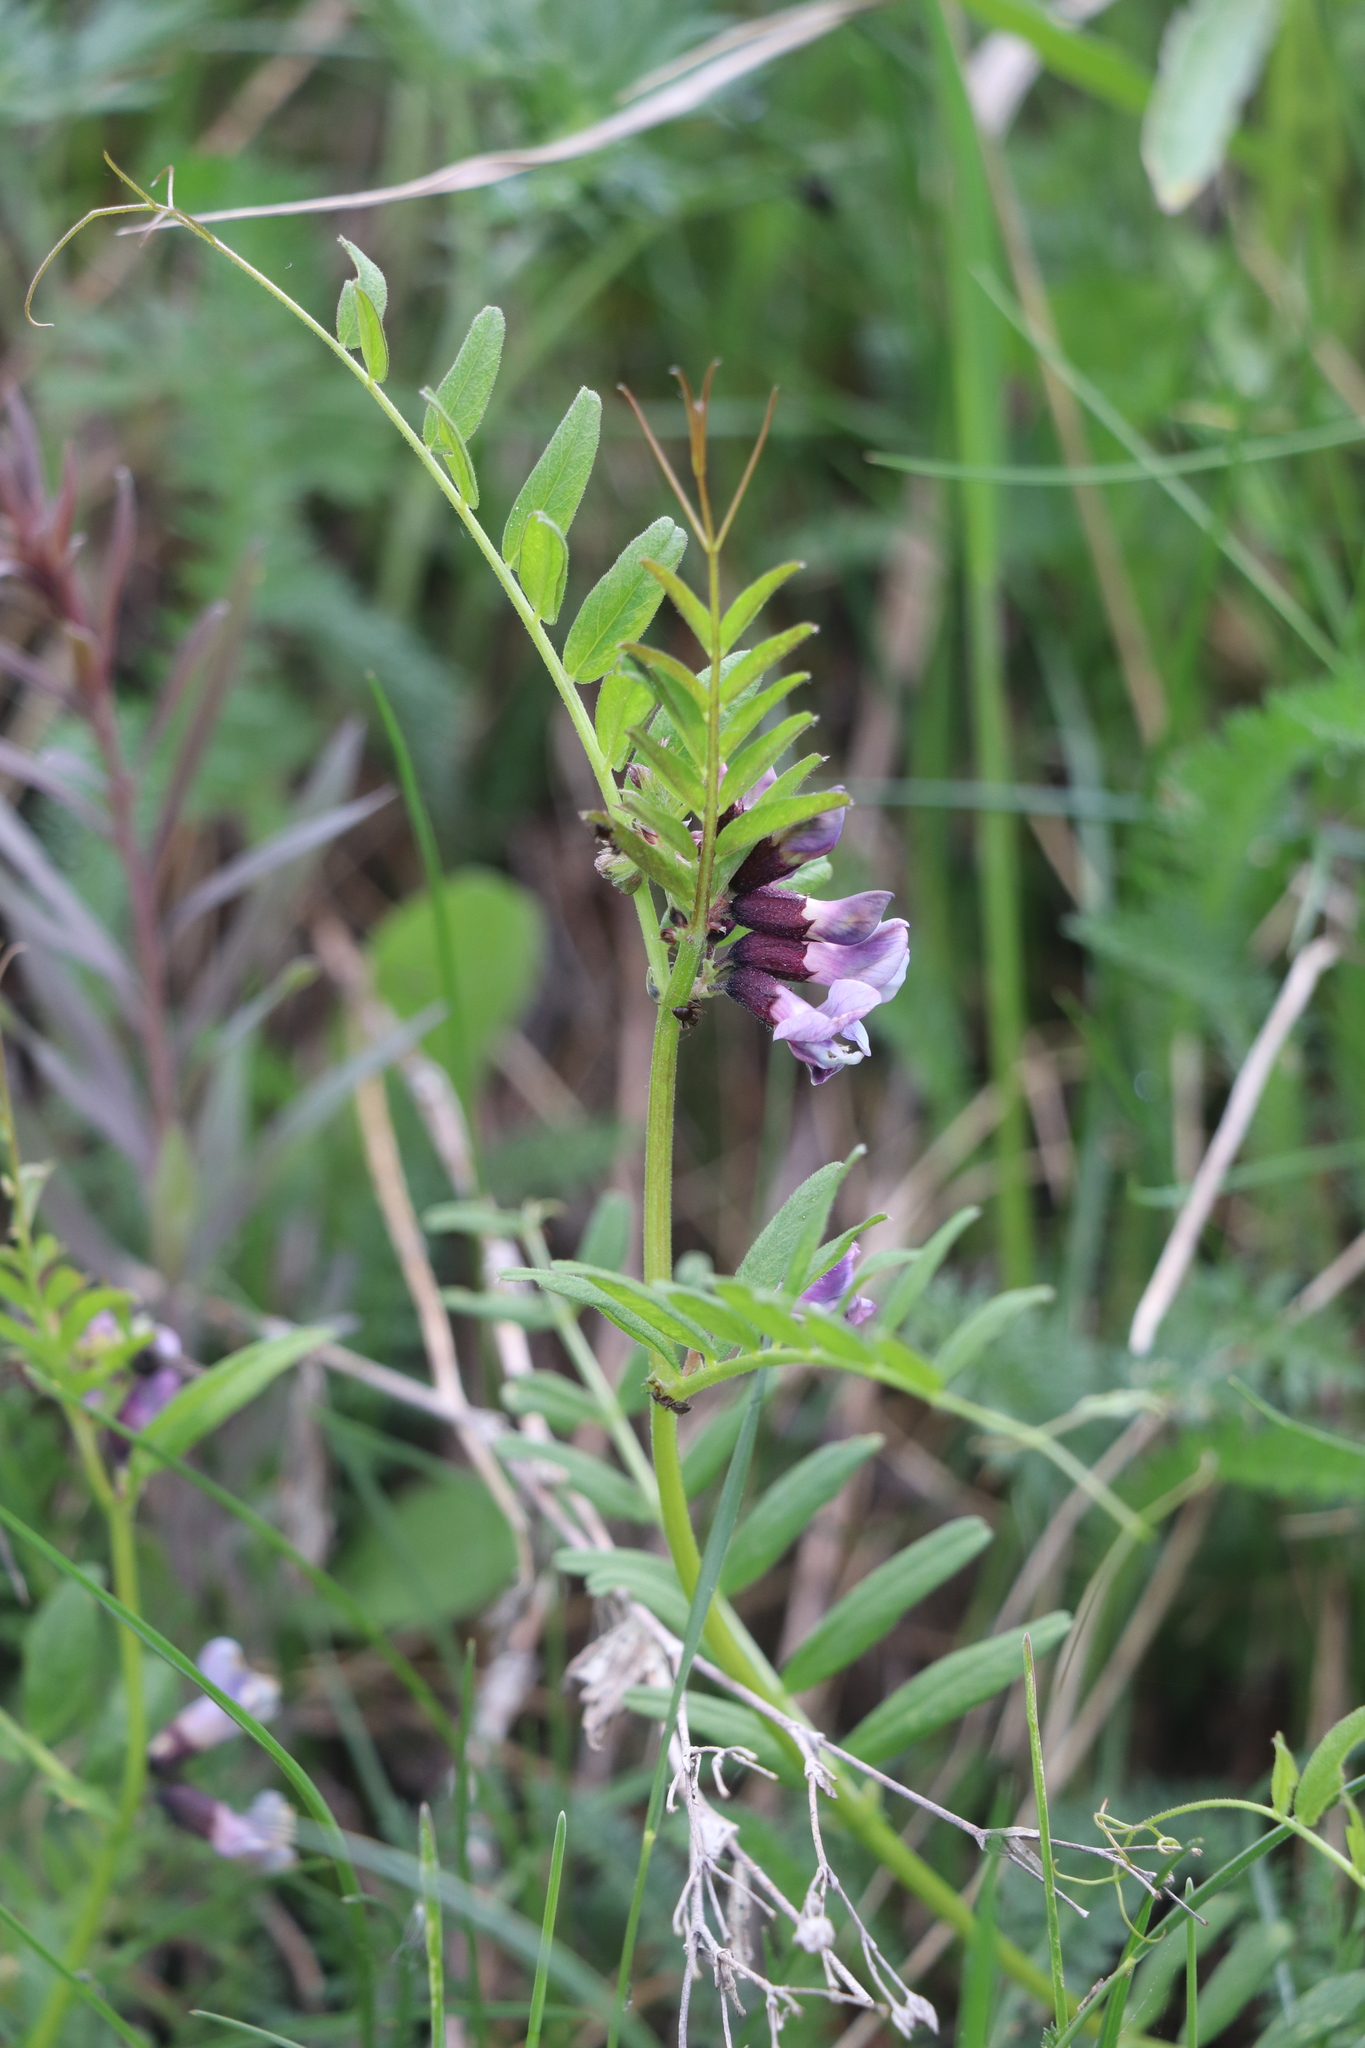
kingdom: Plantae
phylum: Tracheophyta
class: Magnoliopsida
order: Fabales
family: Fabaceae
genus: Vicia
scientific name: Vicia sepium
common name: Bush vetch
